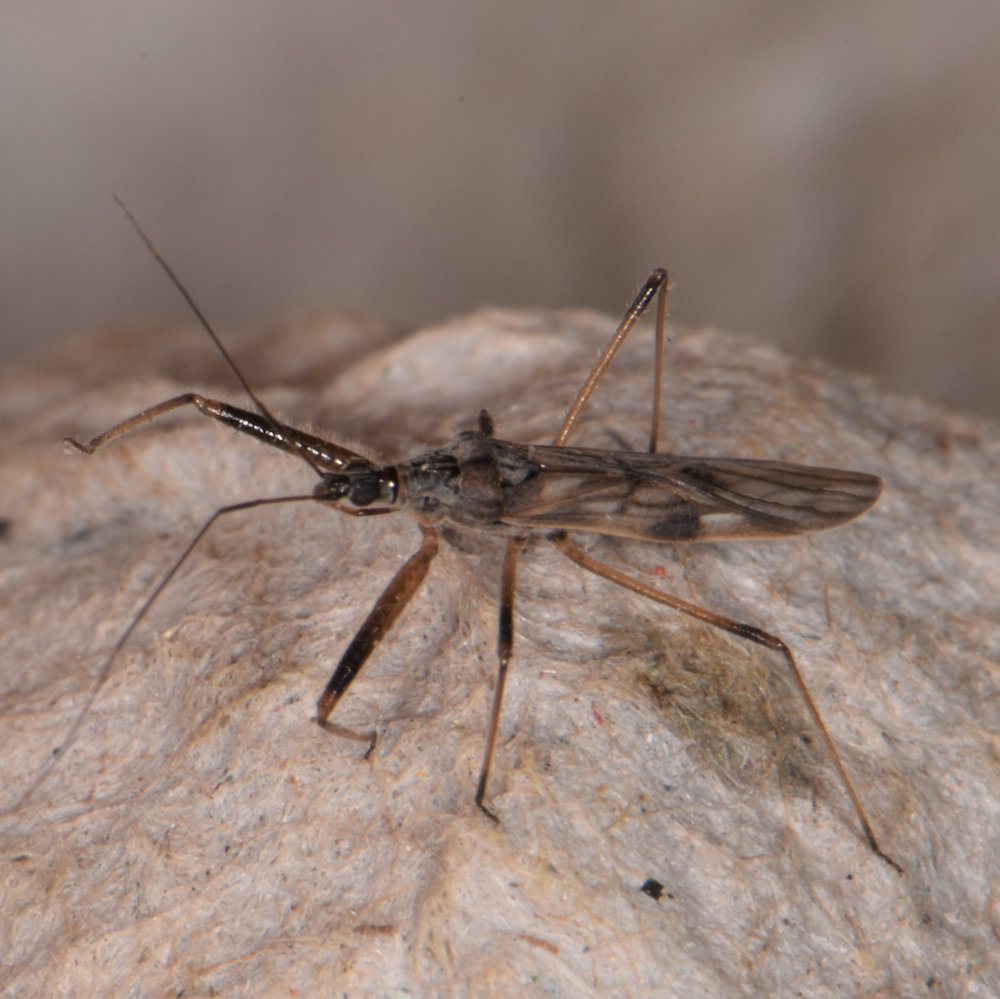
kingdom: Animalia
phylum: Arthropoda
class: Insecta
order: Hemiptera
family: Nabidae
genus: Metatropiphorus
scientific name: Metatropiphorus belfragii
